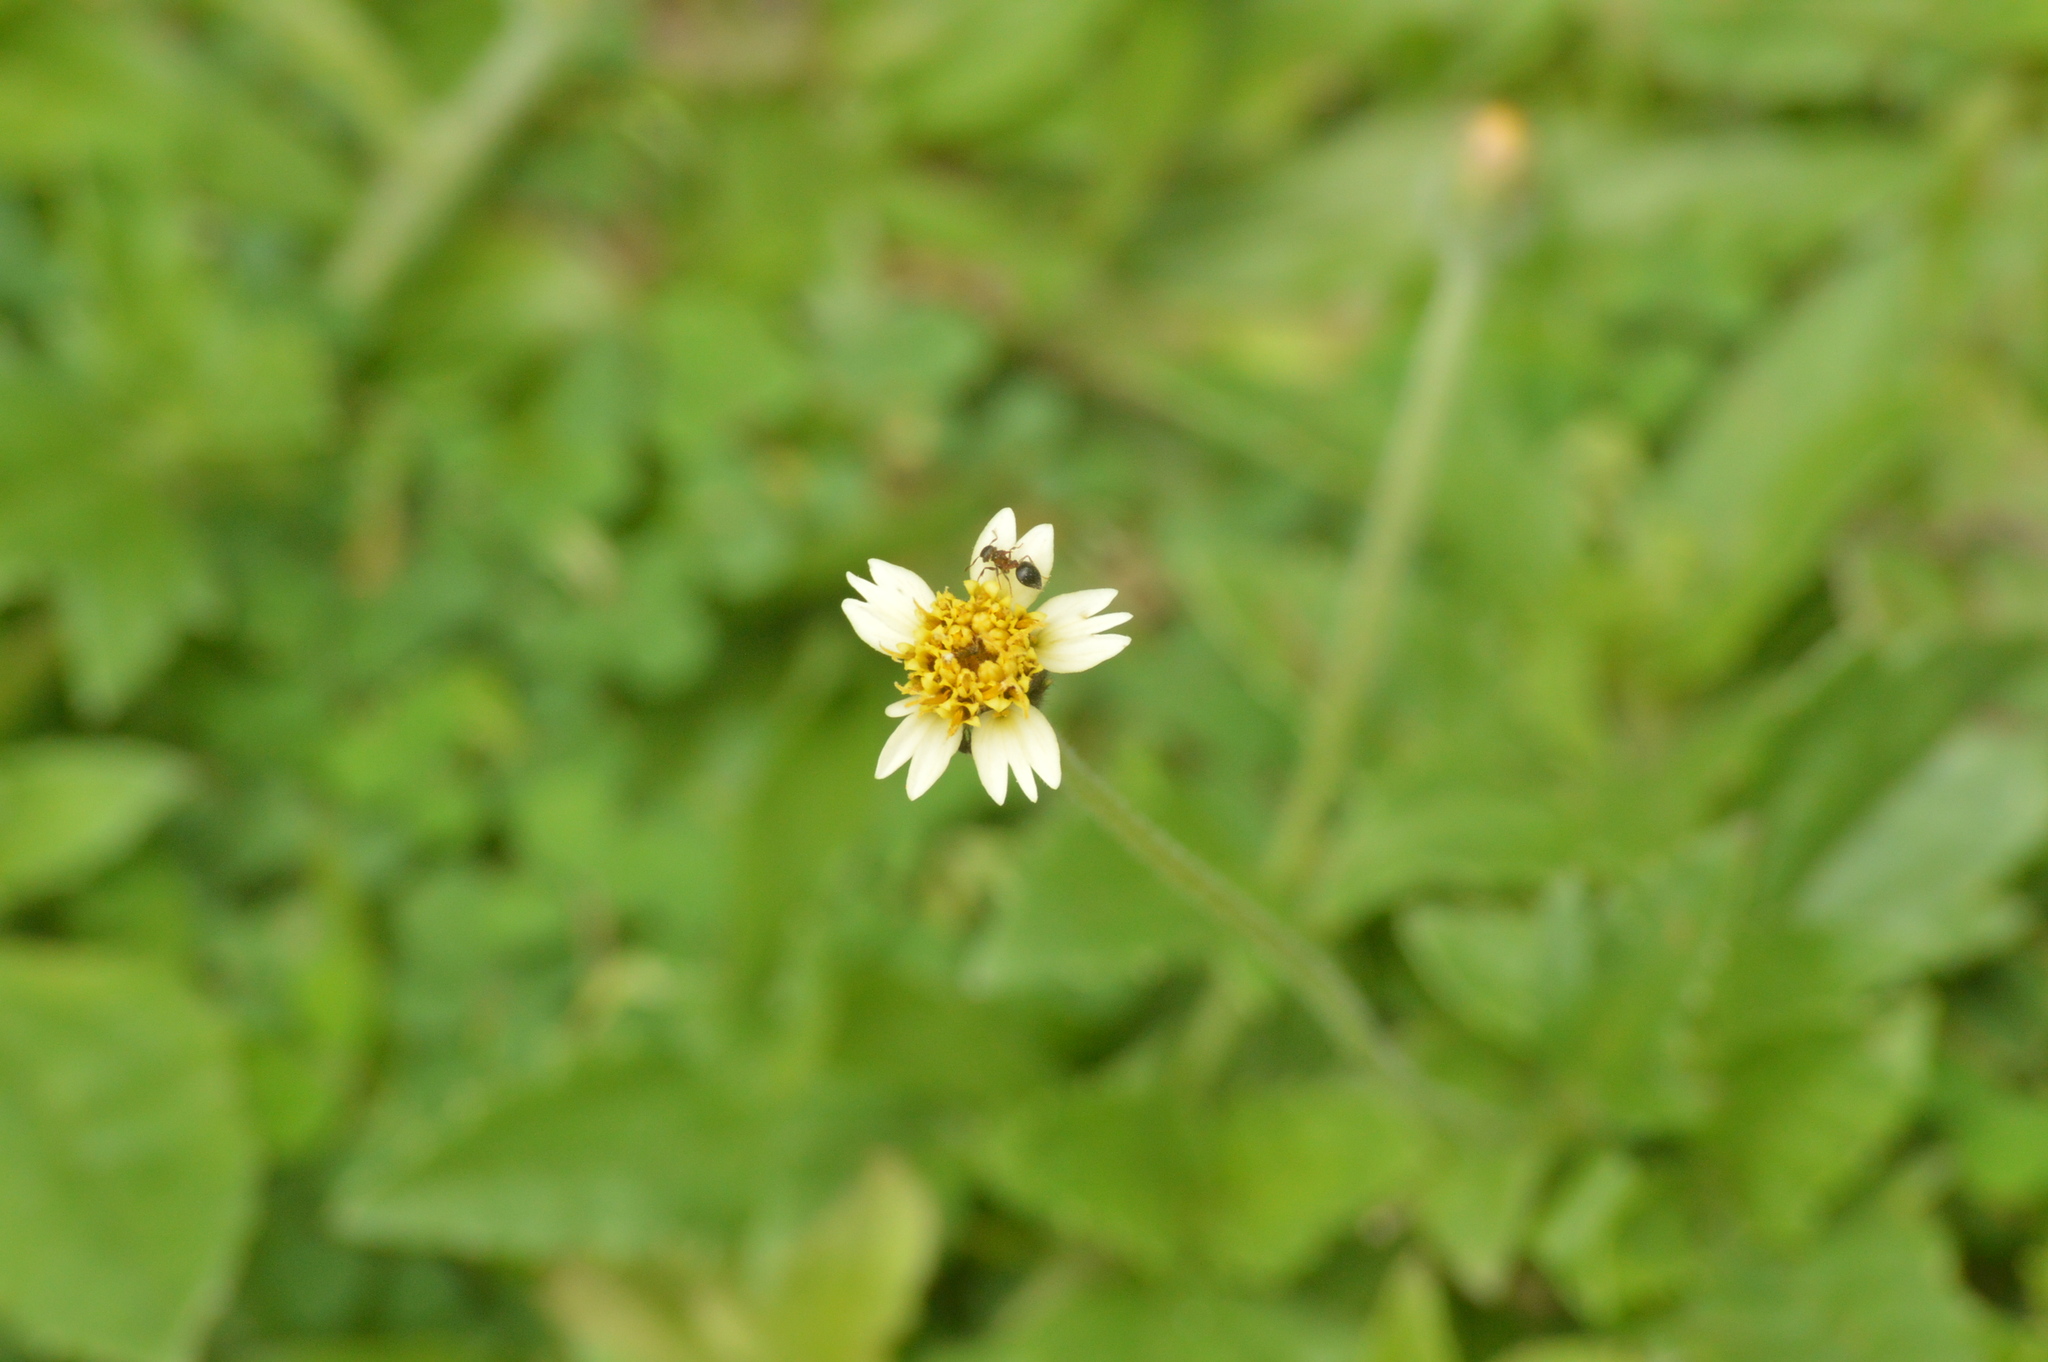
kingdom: Animalia
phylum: Arthropoda
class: Insecta
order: Hymenoptera
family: Formicidae
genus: Meranoplus
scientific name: Meranoplus bicolor
